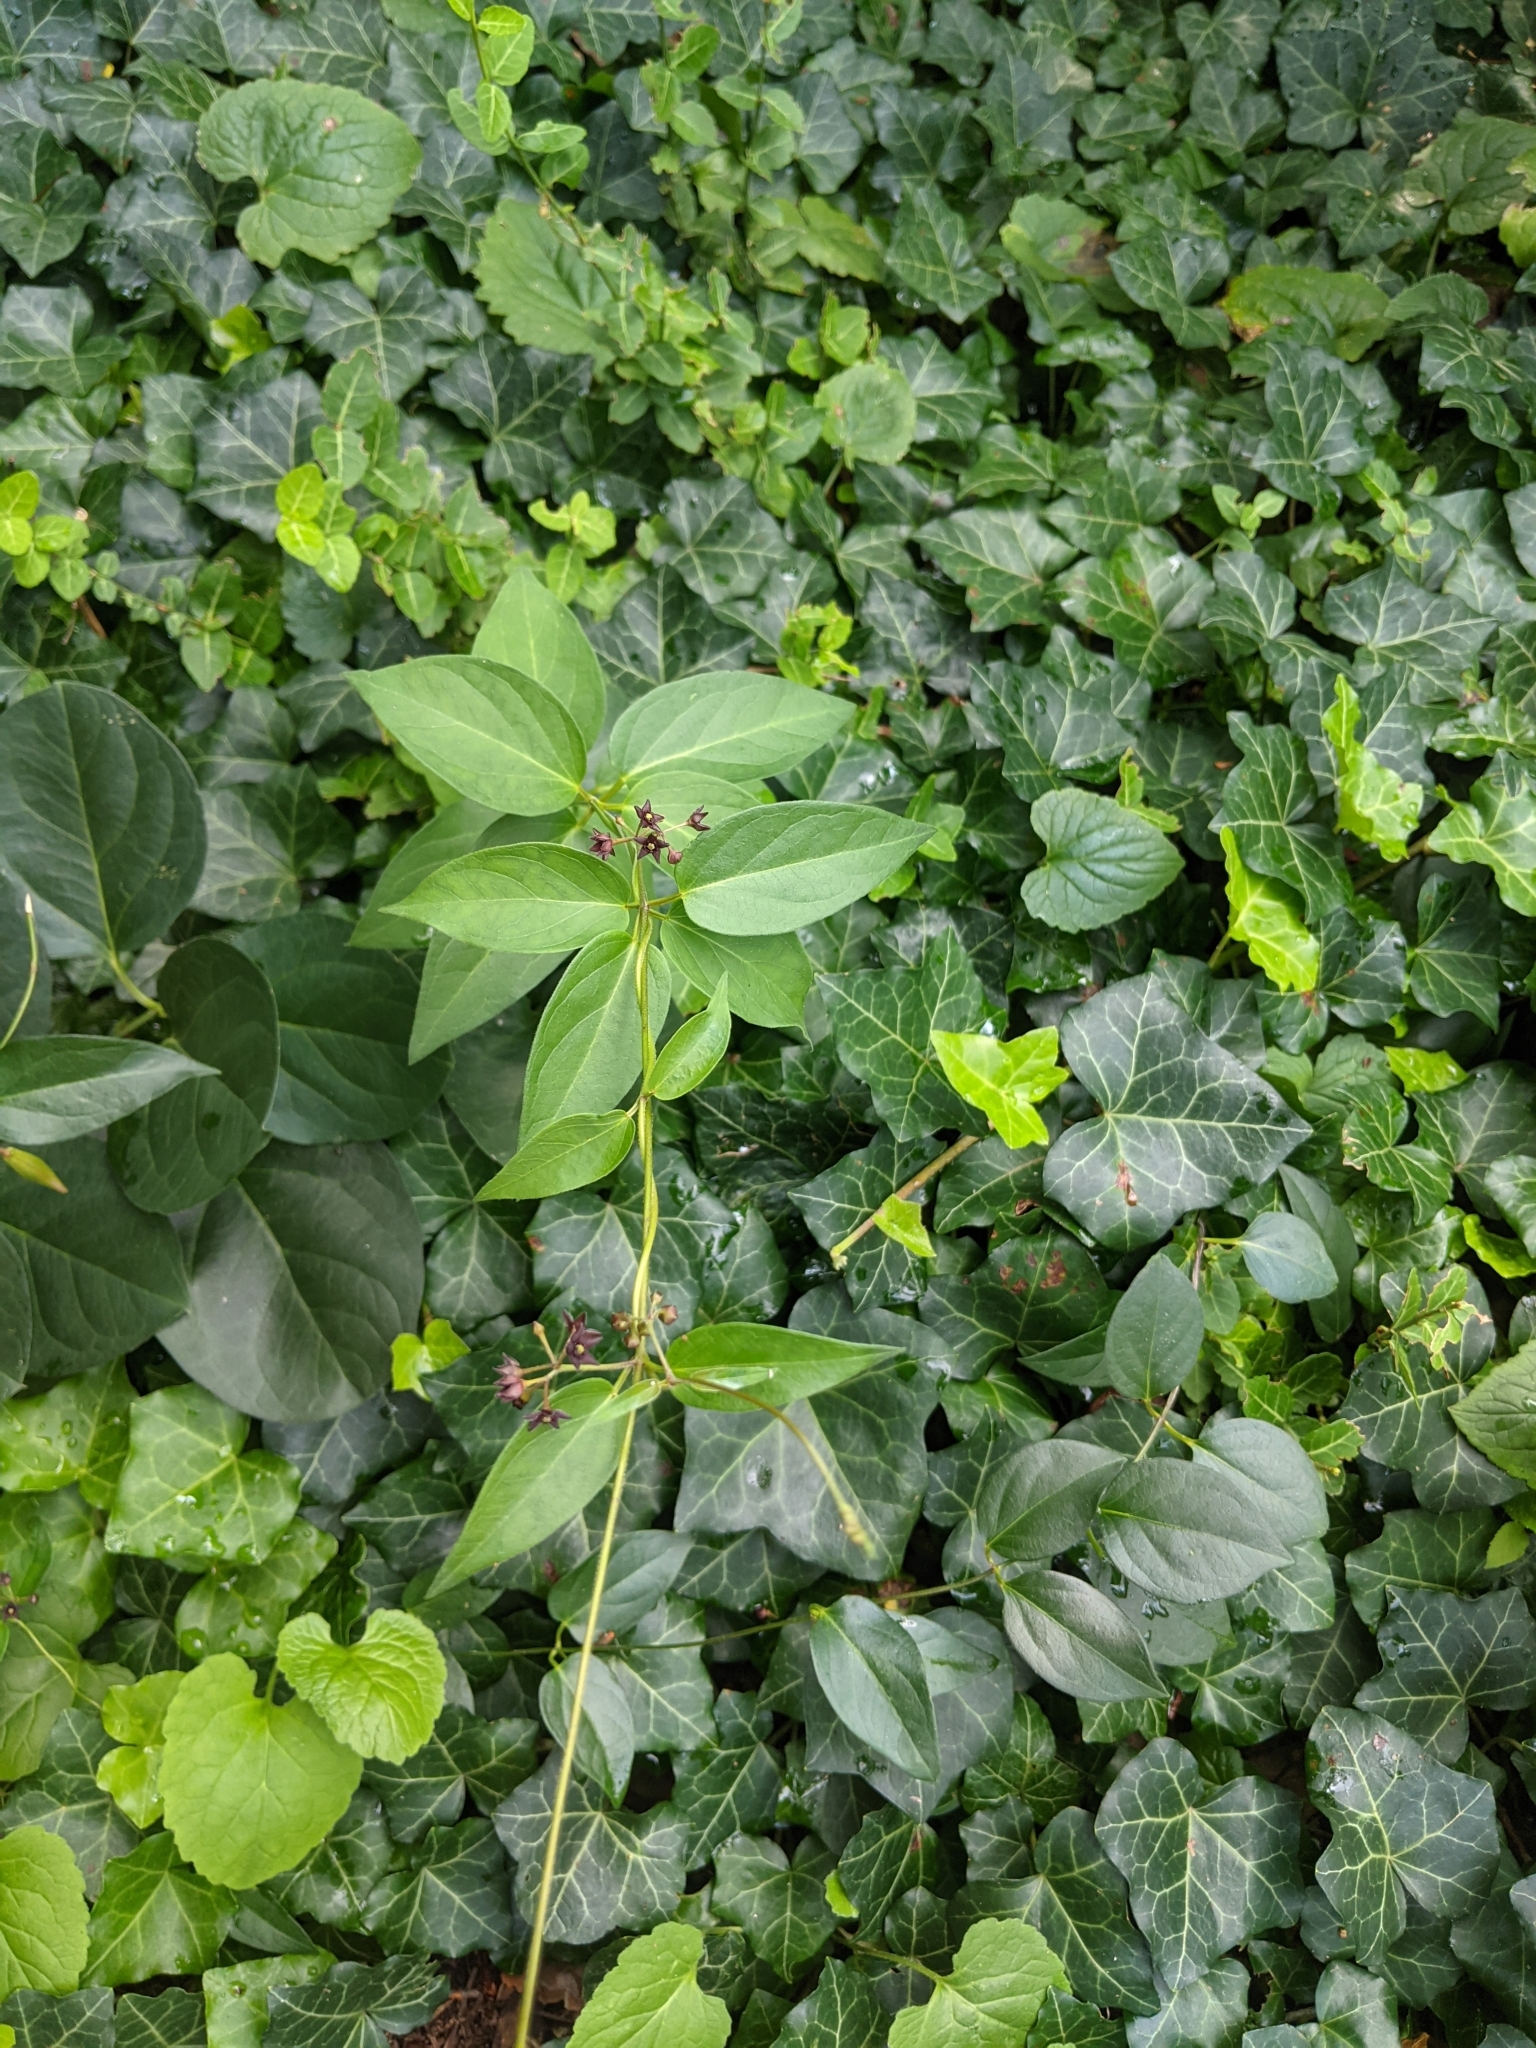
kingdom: Plantae
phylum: Tracheophyta
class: Magnoliopsida
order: Gentianales
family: Apocynaceae
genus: Vincetoxicum
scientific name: Vincetoxicum nigrum
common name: Black swallow-wort
